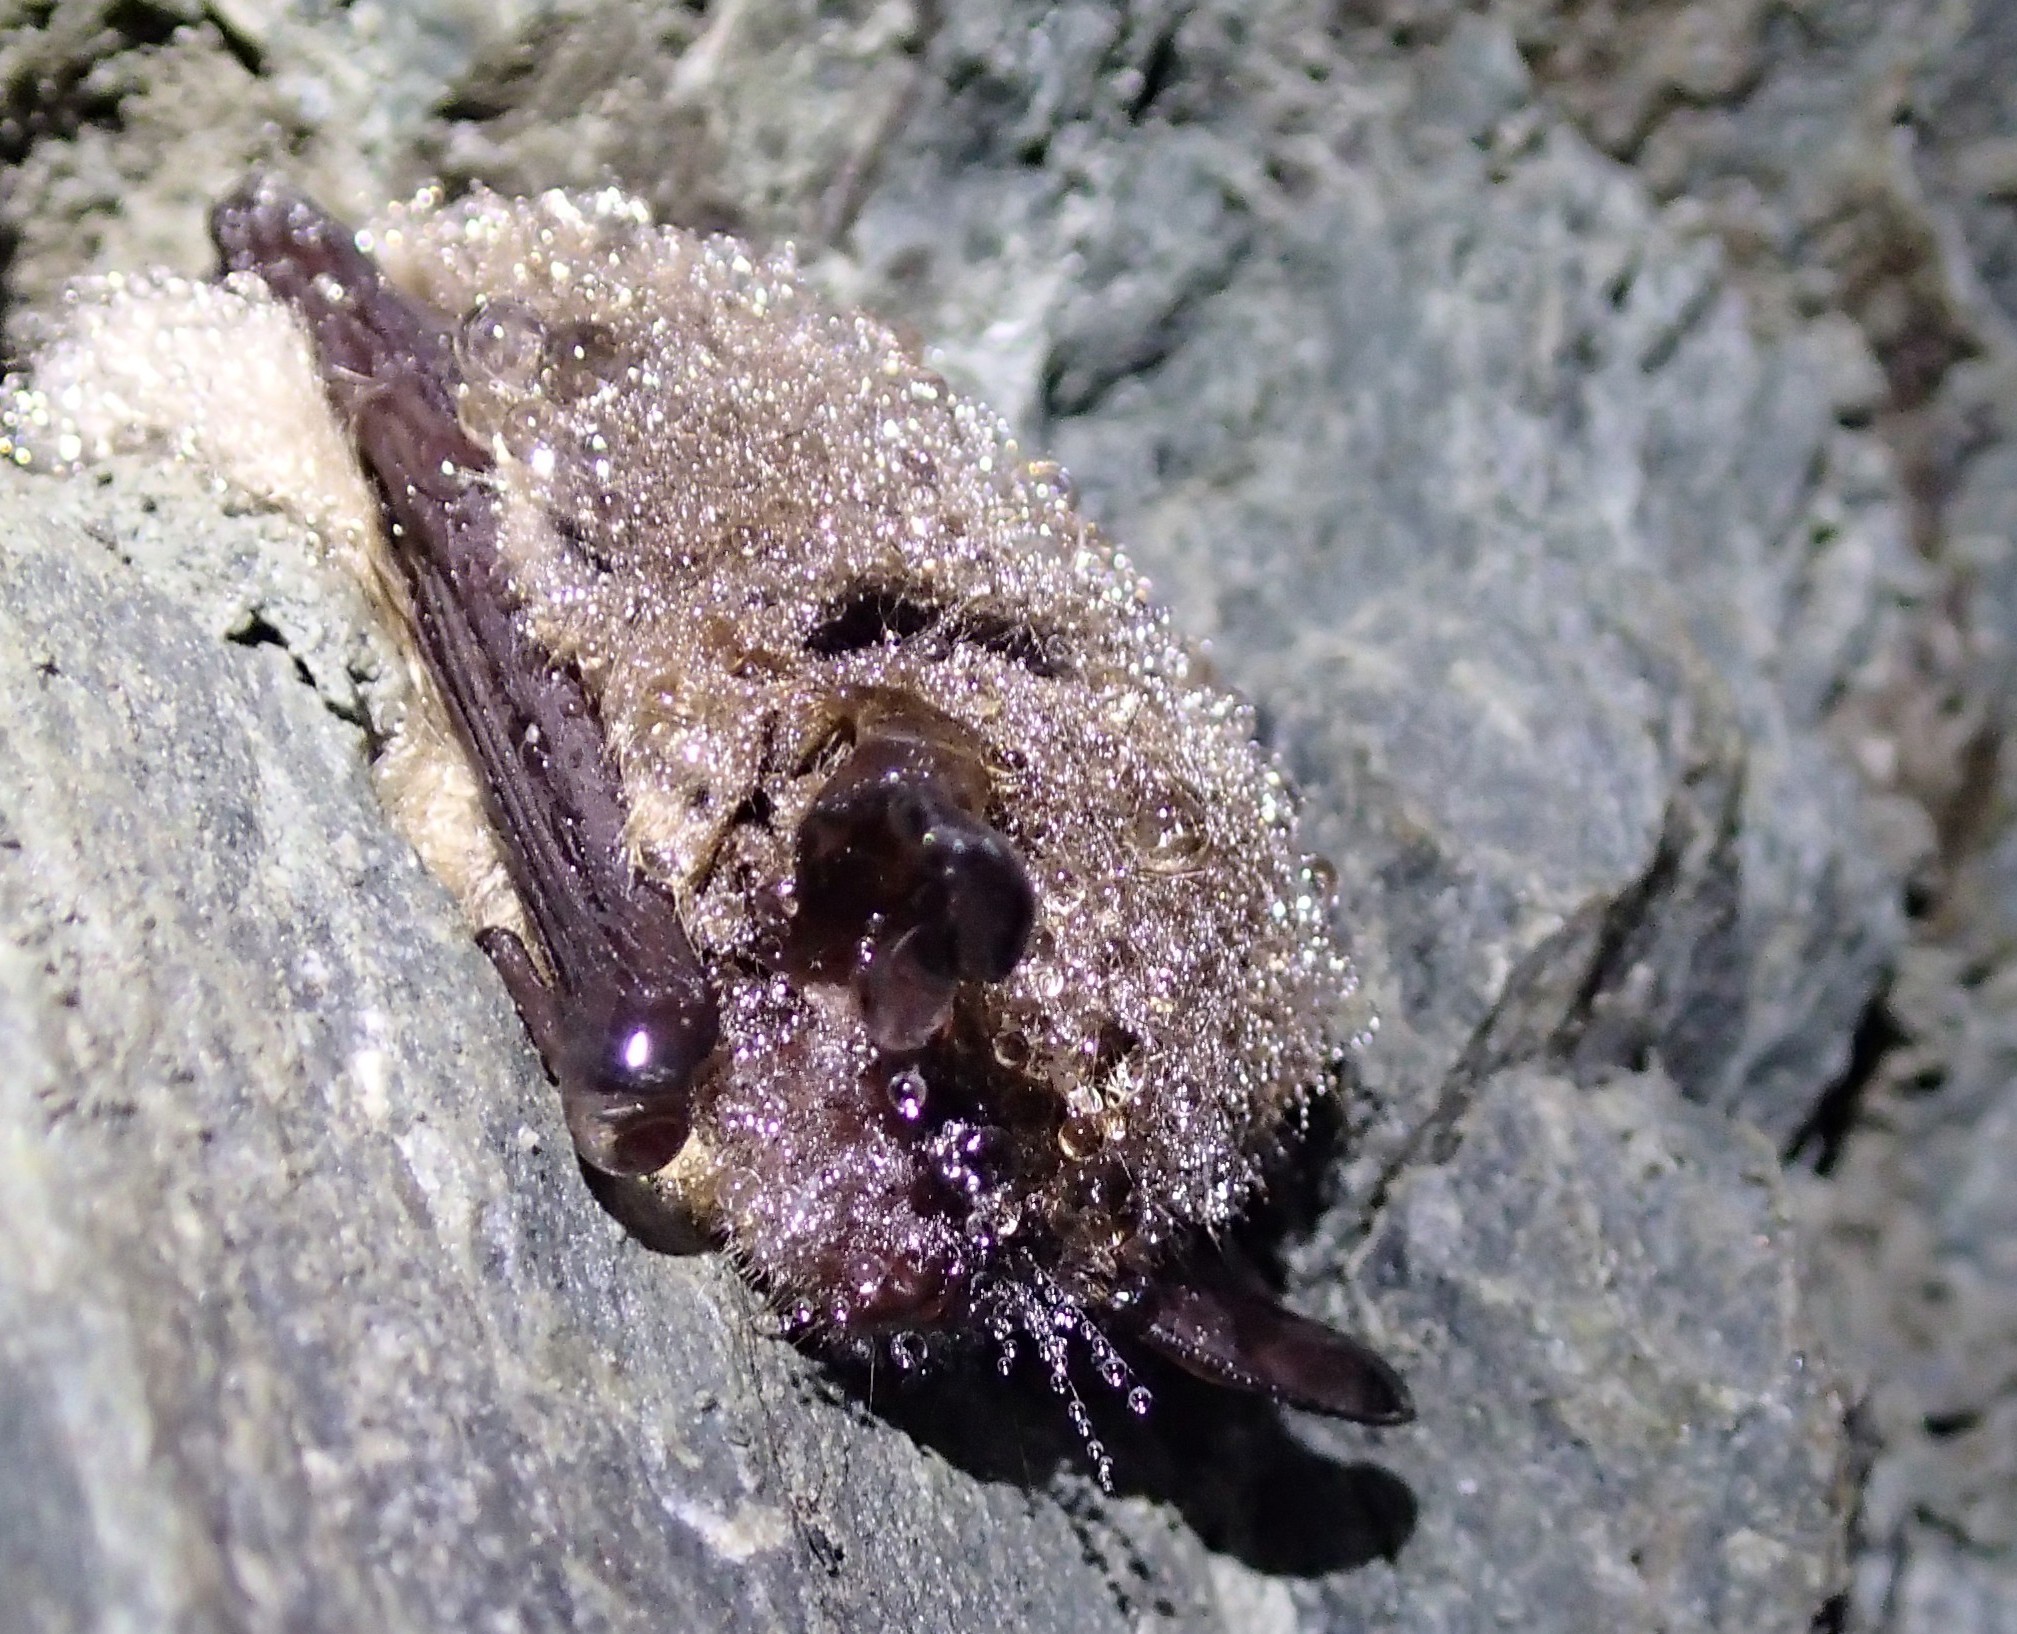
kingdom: Animalia
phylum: Chordata
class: Mammalia
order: Chiroptera
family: Vespertilionidae
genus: Myotis
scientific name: Myotis lucifugus
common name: Little brown bat
